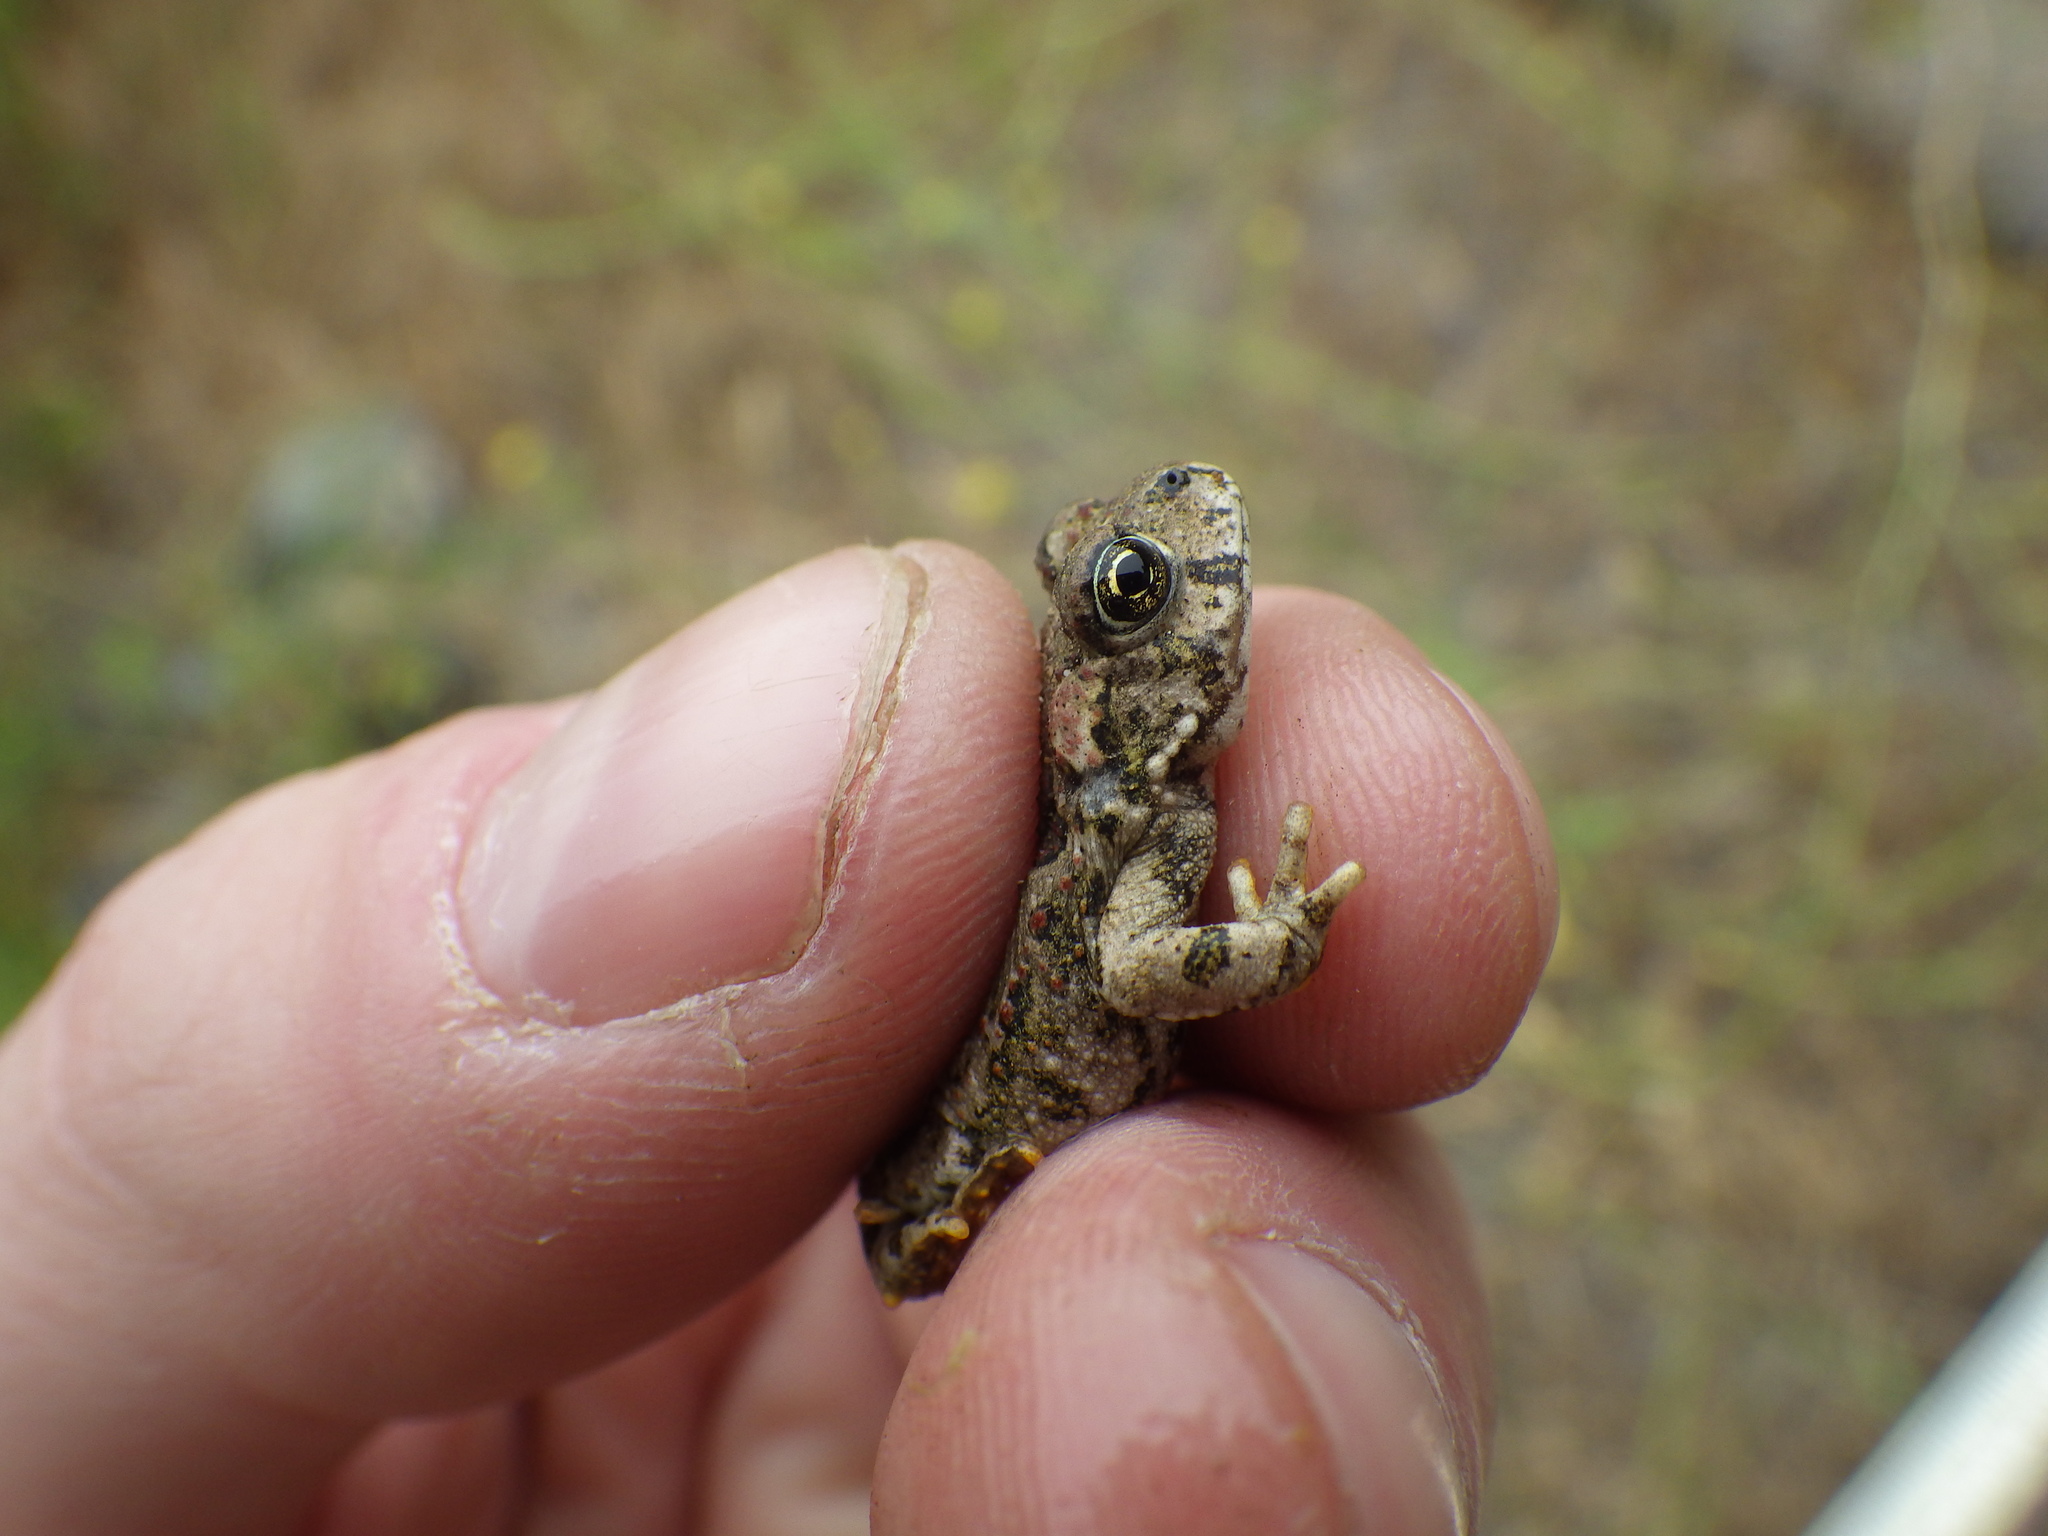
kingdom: Animalia
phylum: Chordata
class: Amphibia
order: Anura
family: Bufonidae
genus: Anaxyrus
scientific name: Anaxyrus boreas
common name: Western toad
